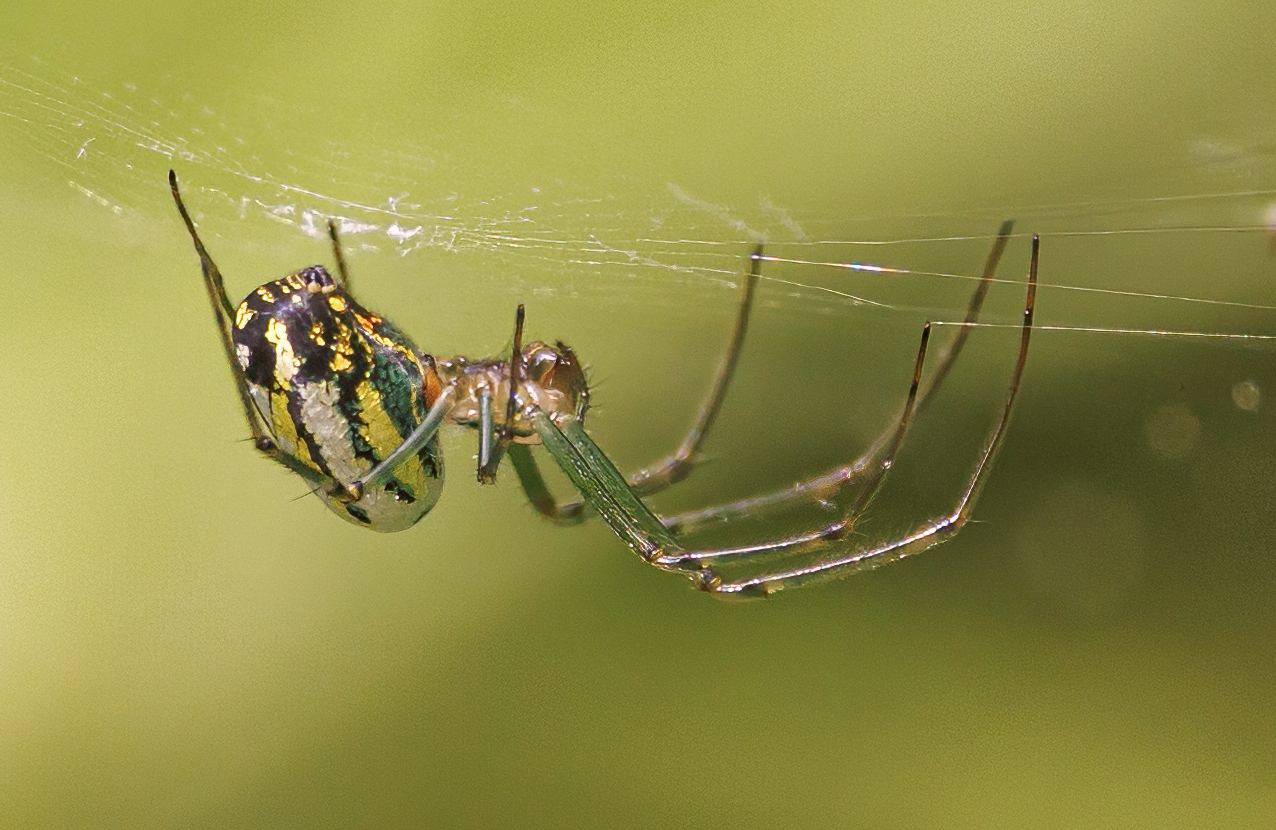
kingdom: Animalia
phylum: Arthropoda
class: Arachnida
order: Araneae
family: Tetragnathidae
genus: Leucauge
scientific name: Leucauge venusta
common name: Longjawed orb weavers
